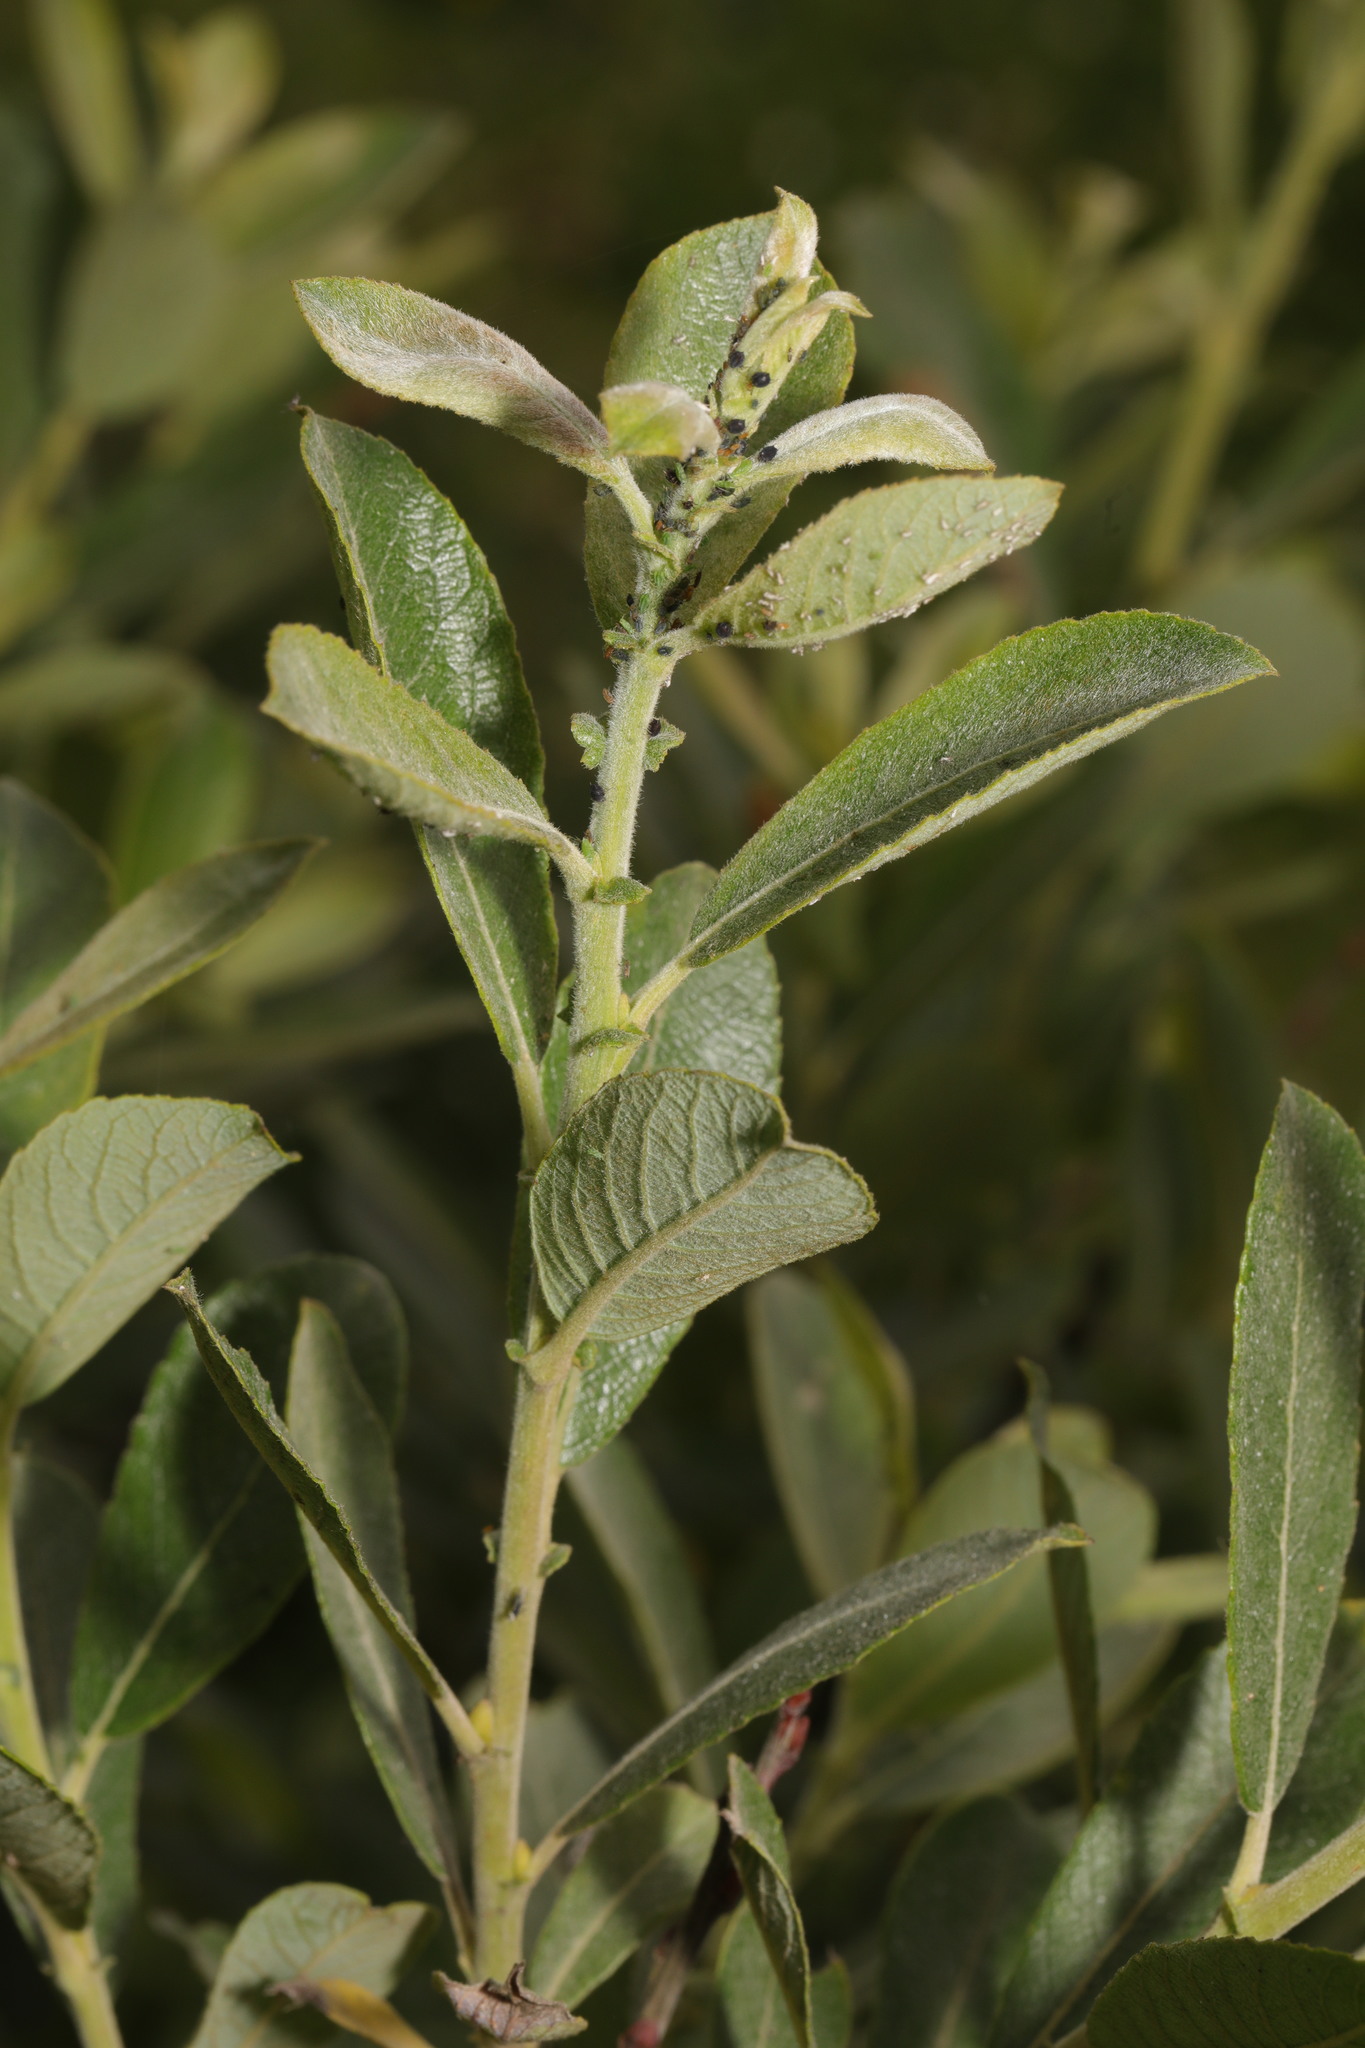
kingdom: Plantae
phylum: Tracheophyta
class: Magnoliopsida
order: Malpighiales
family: Salicaceae
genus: Salix
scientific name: Salix cinerea
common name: Common sallow
